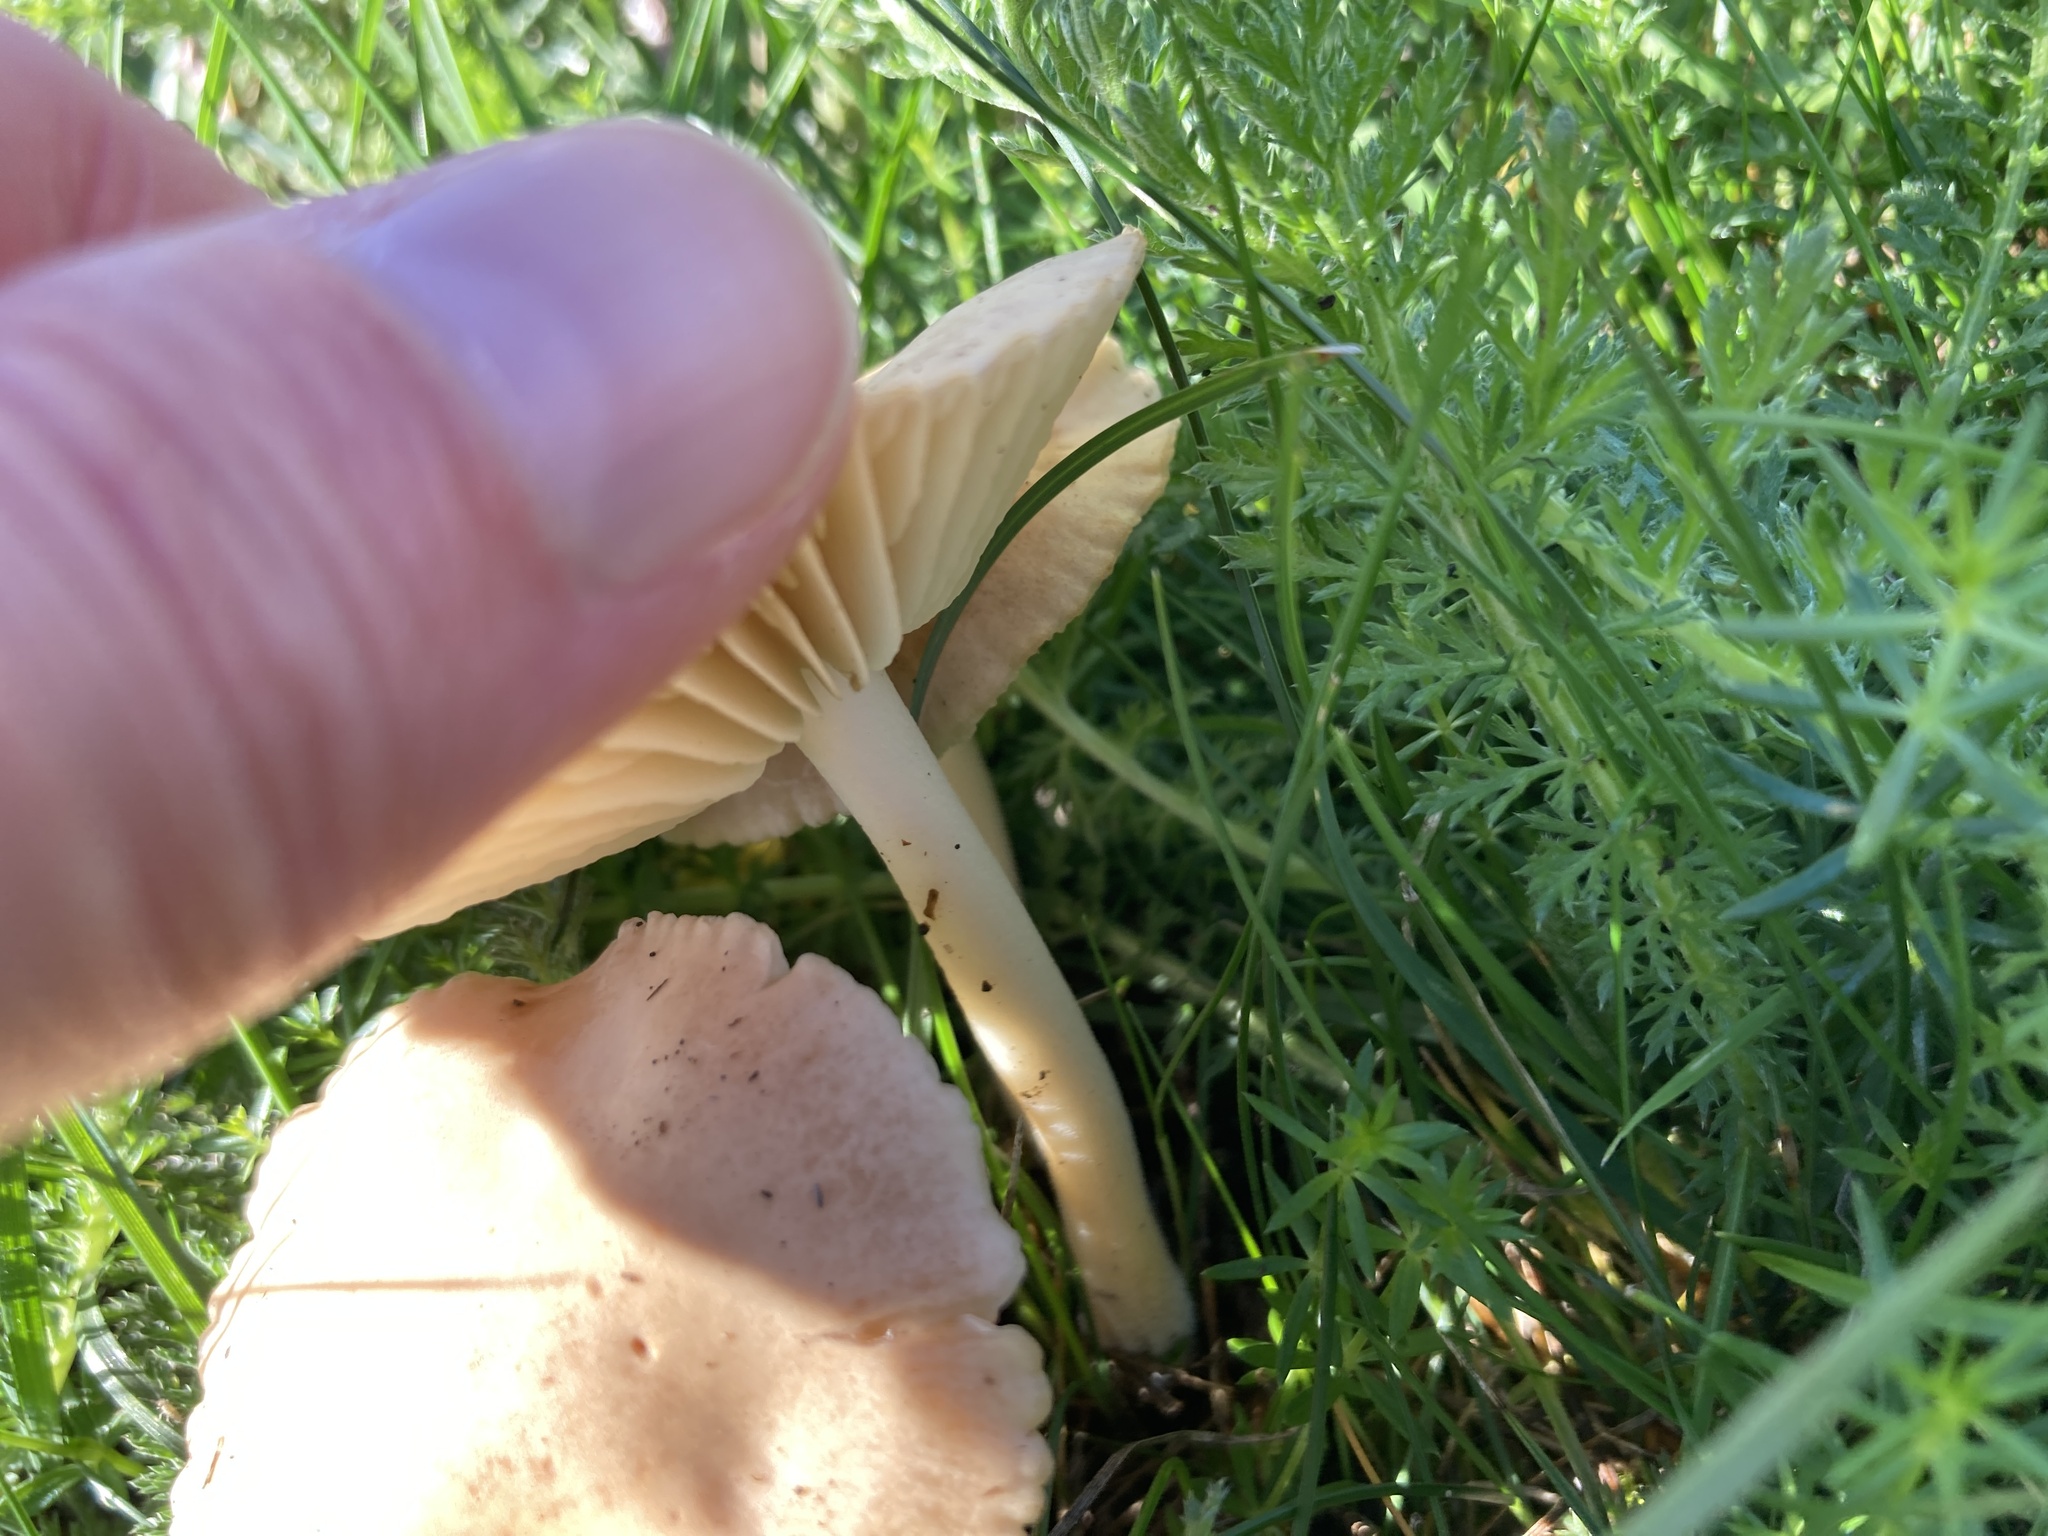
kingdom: Fungi
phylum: Basidiomycota
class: Agaricomycetes
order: Agaricales
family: Marasmiaceae
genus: Marasmius
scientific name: Marasmius oreades
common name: Fairy ring champignon
